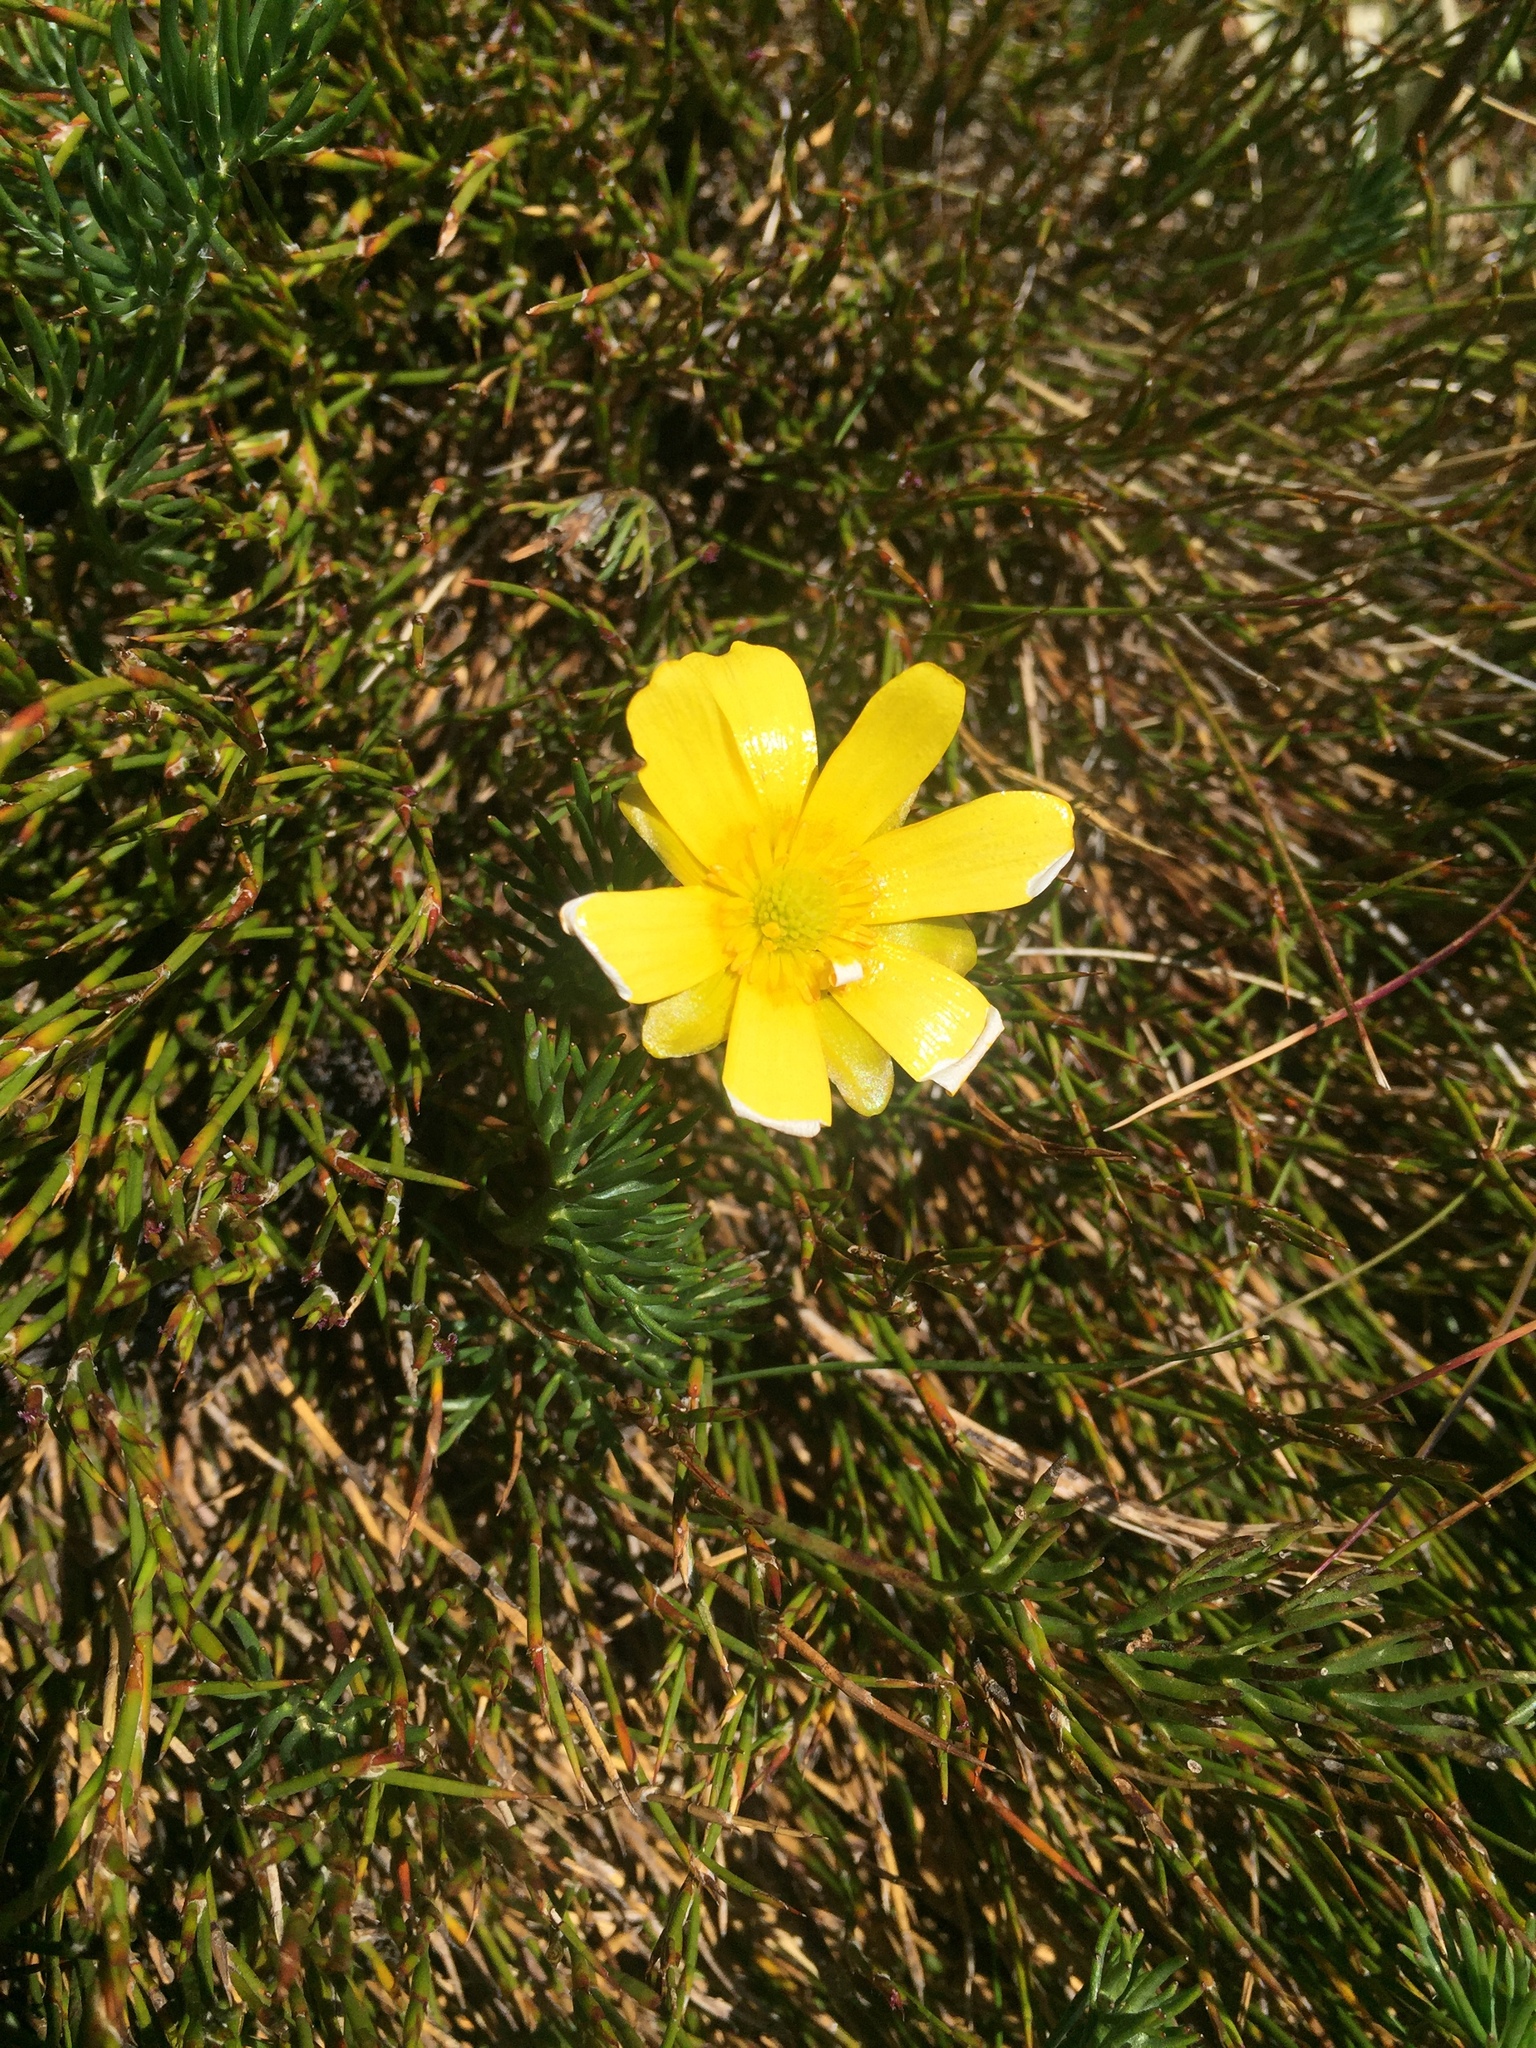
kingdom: Plantae
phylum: Tracheophyta
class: Magnoliopsida
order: Ranunculales
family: Ranunculaceae
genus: Ranunculus
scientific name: Ranunculus gunnianus
